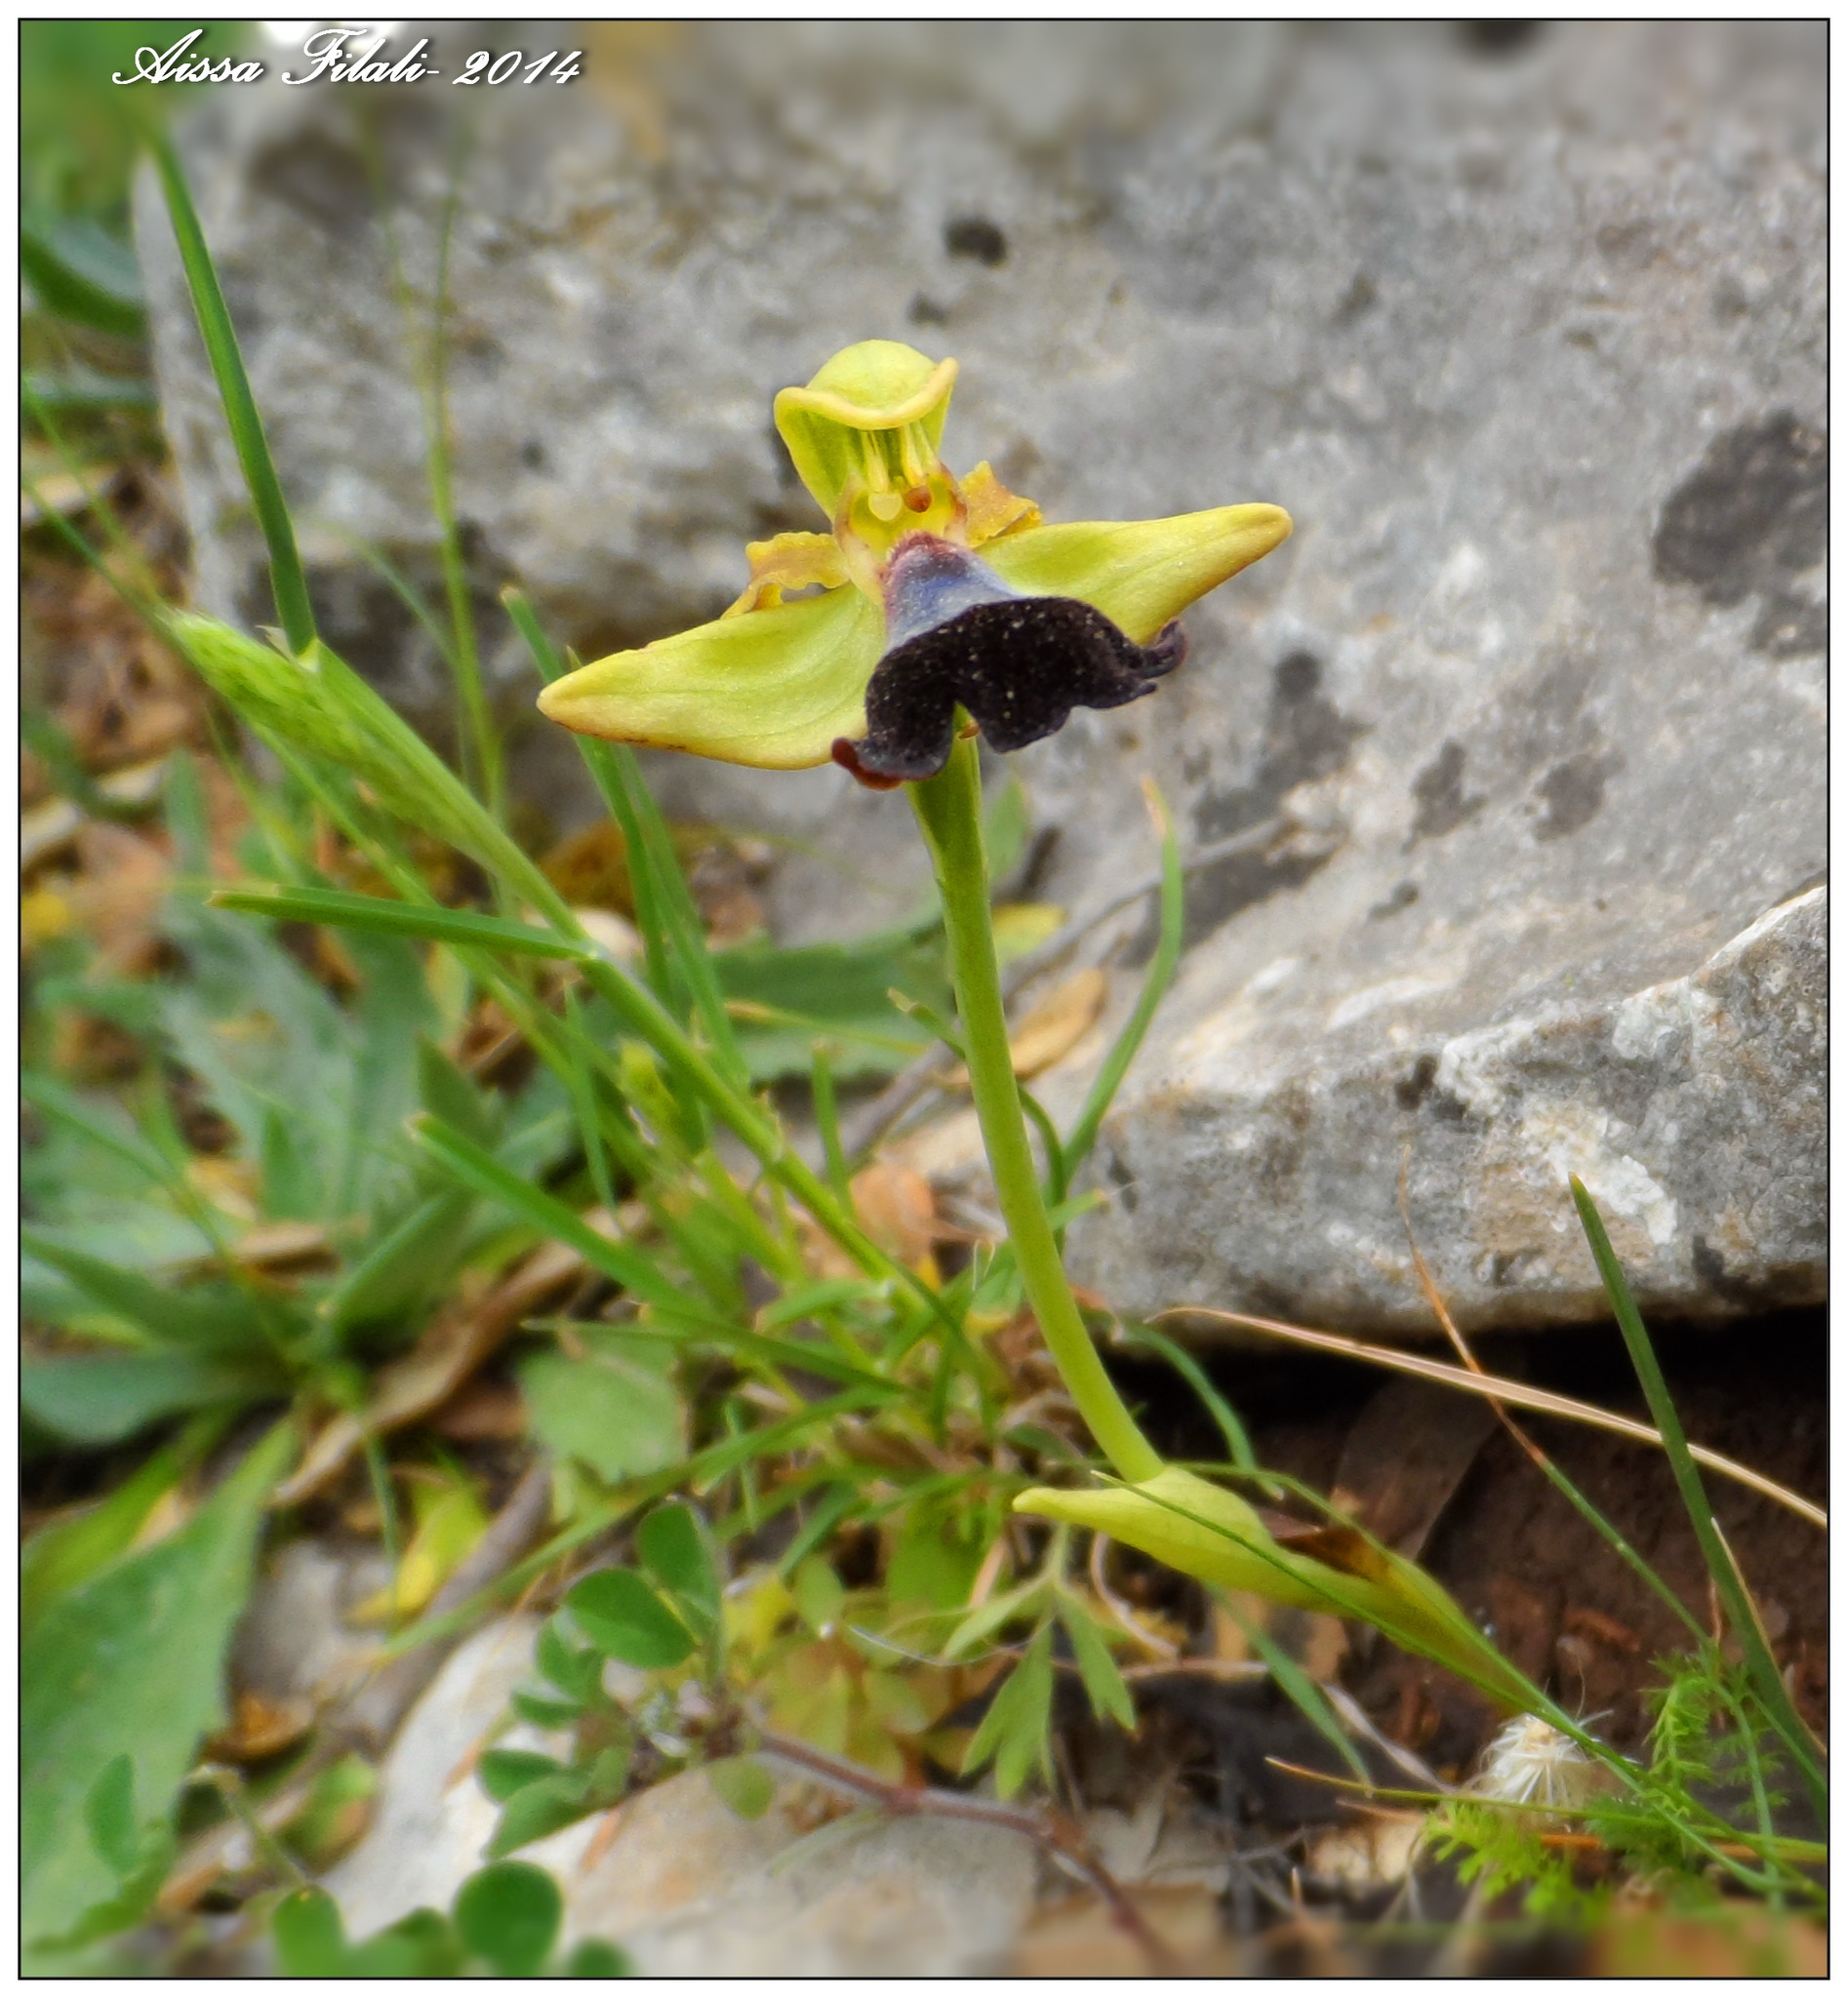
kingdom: Plantae
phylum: Tracheophyta
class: Liliopsida
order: Asparagales
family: Orchidaceae
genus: Ophrys
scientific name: Ophrys atlantica
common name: Atlantic ophrys
